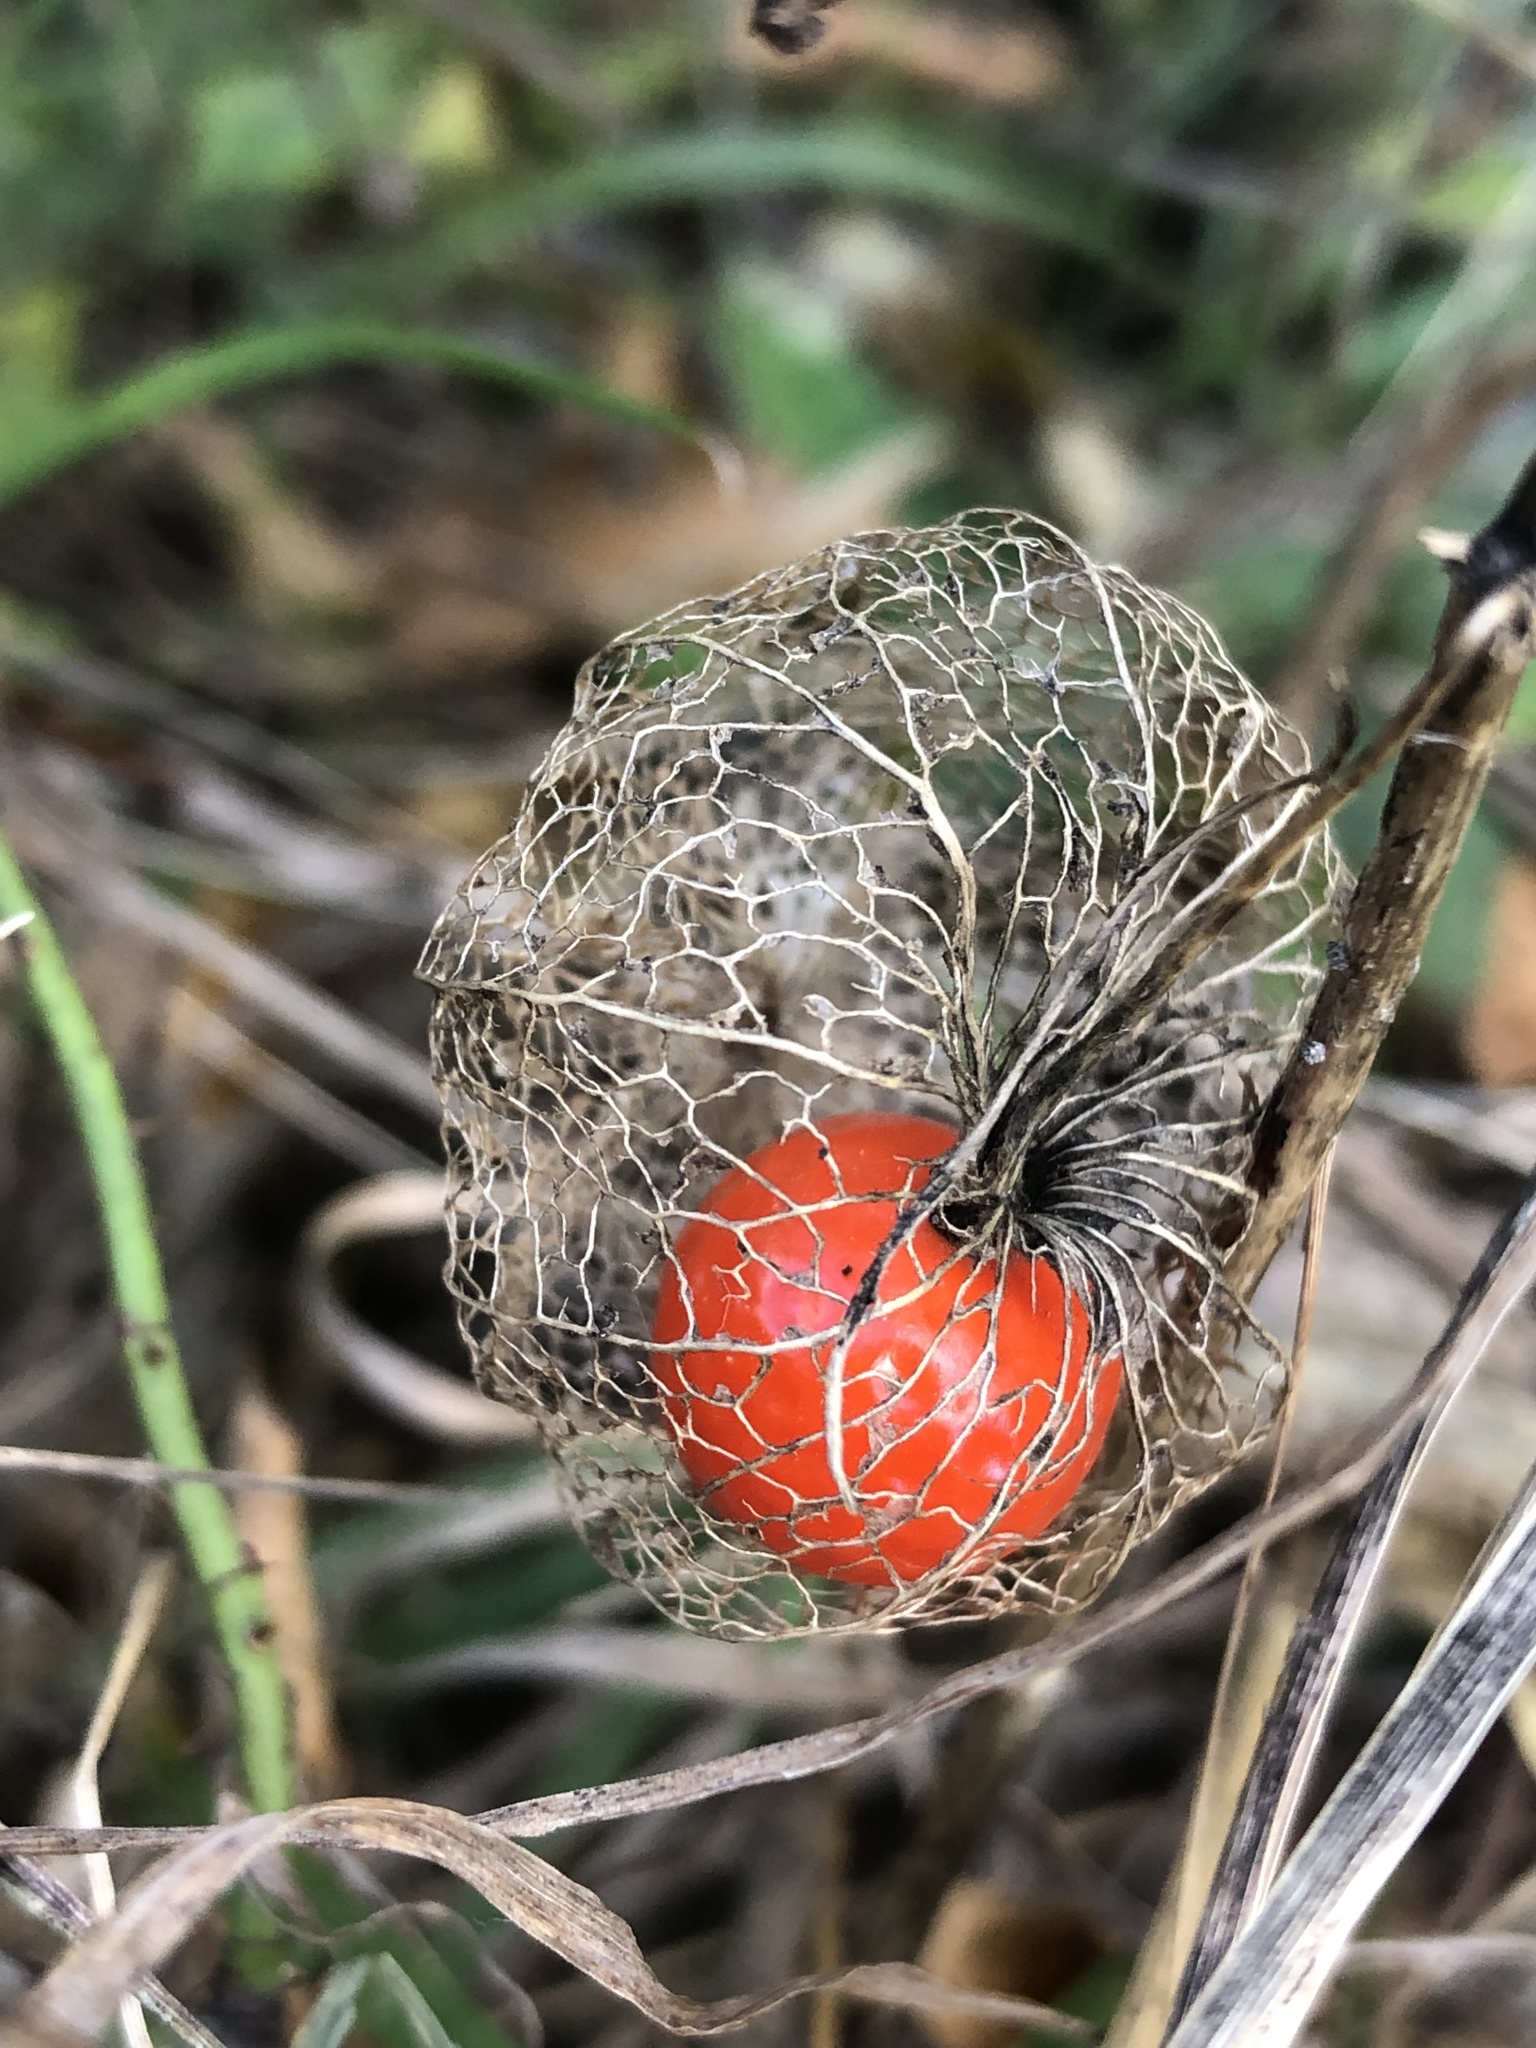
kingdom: Plantae
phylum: Tracheophyta
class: Magnoliopsida
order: Solanales
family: Solanaceae
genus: Alkekengi
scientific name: Alkekengi officinarum
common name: Japanese-lantern
